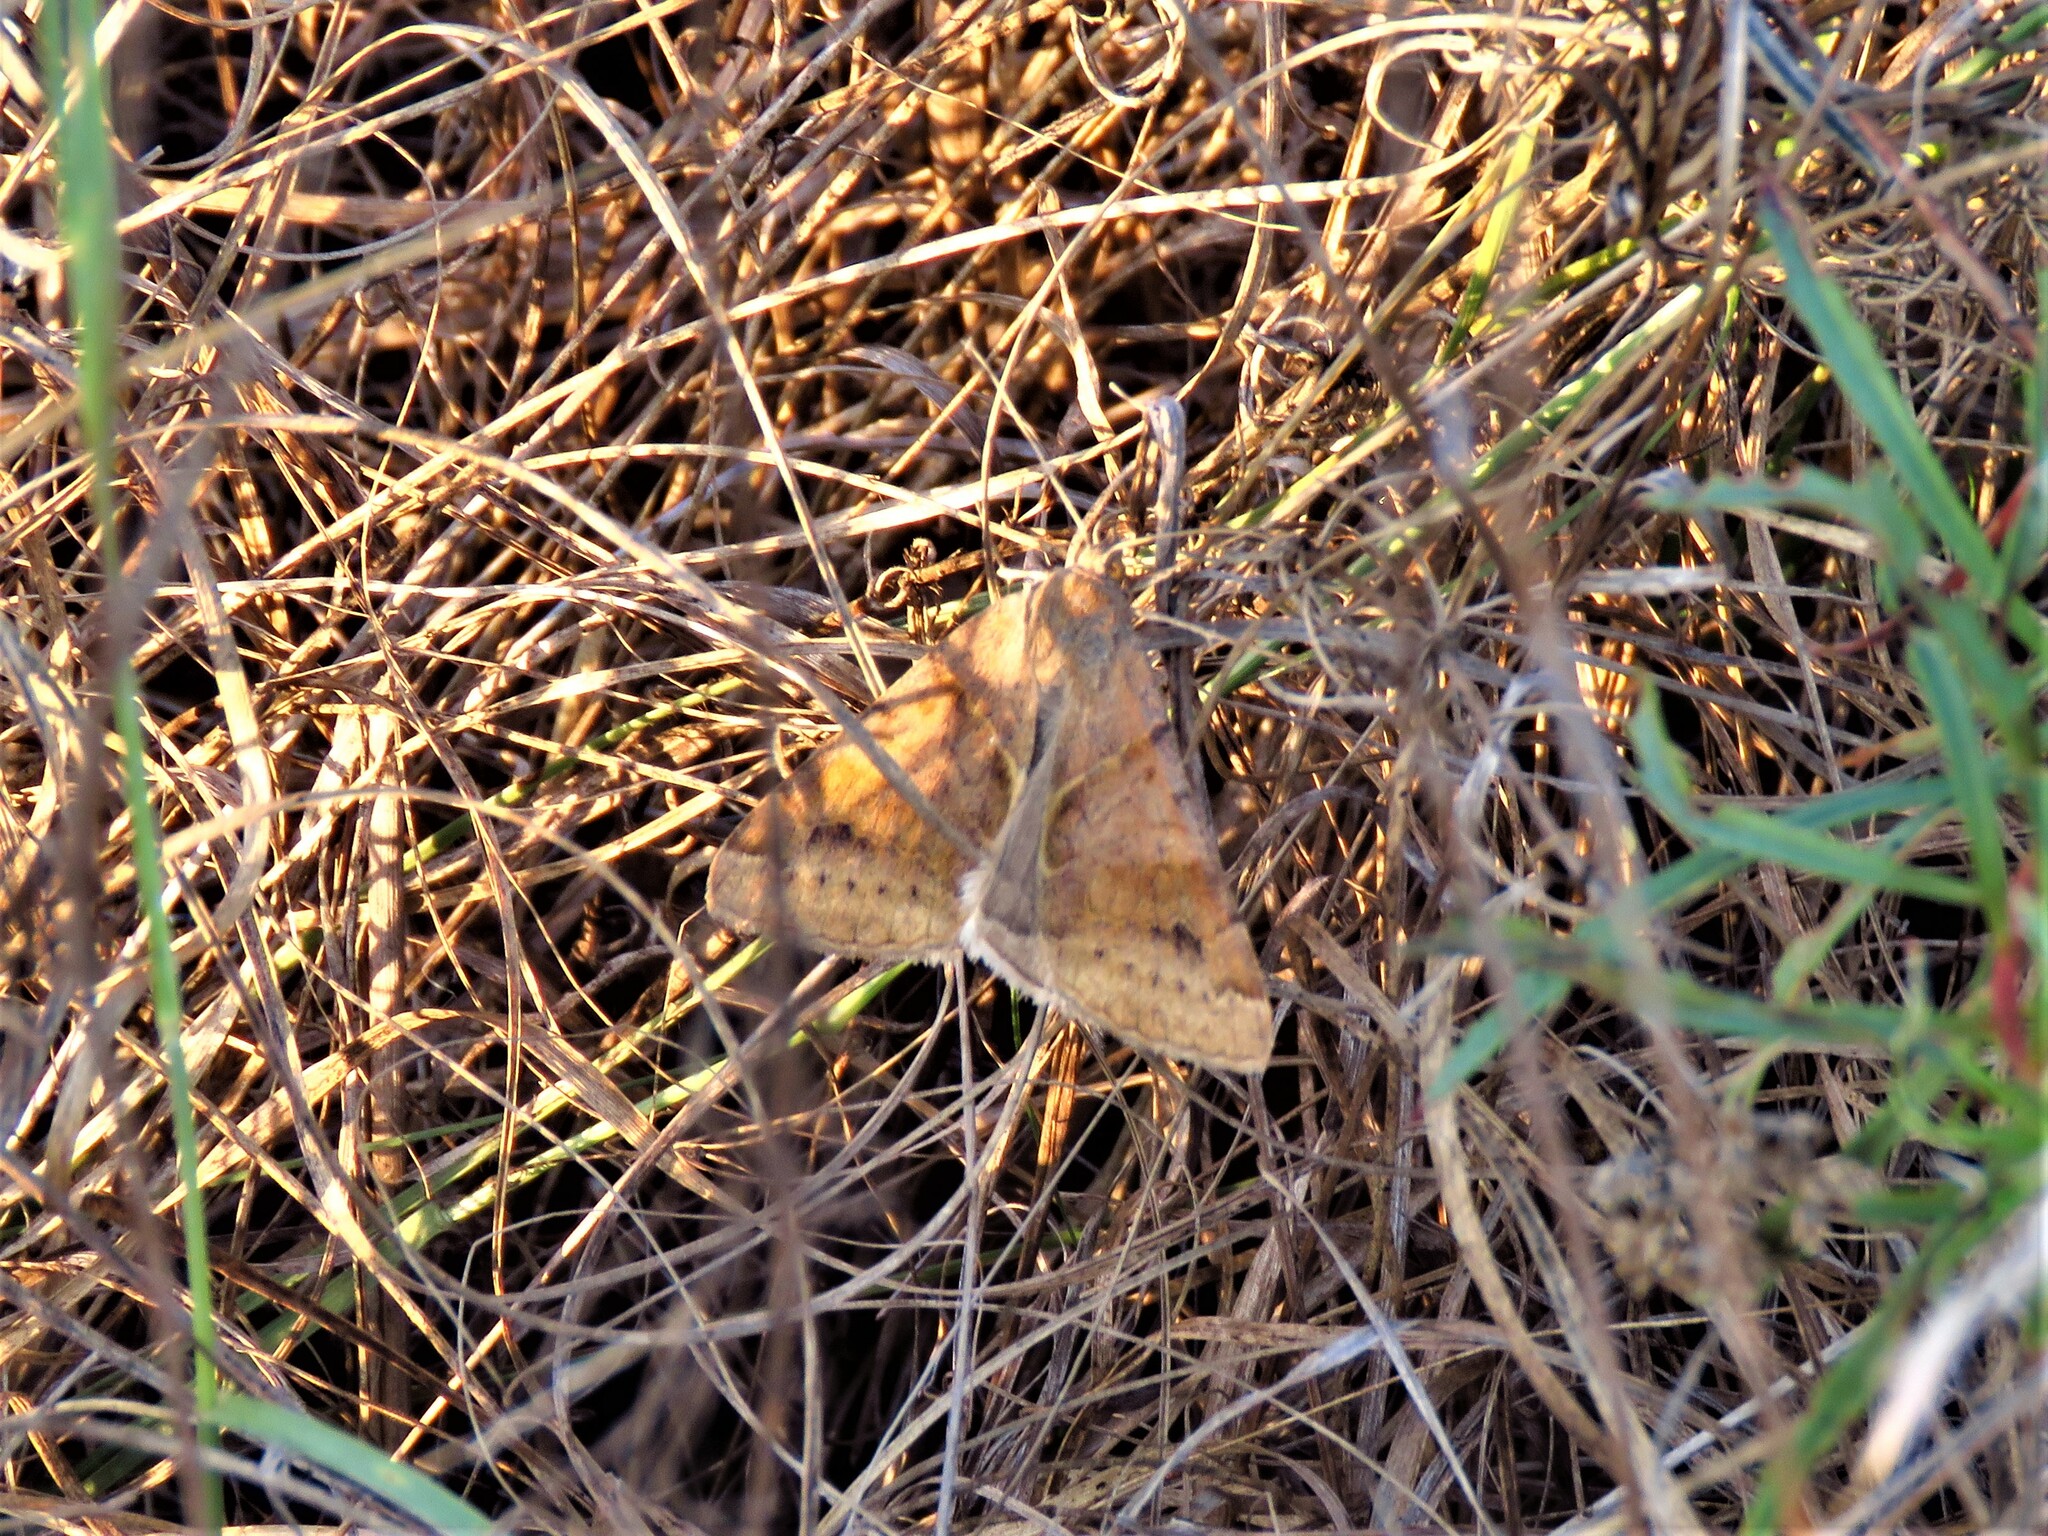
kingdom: Animalia
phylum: Arthropoda
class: Insecta
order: Lepidoptera
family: Erebidae
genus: Caenurgina
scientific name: Caenurgina erechtea
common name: Forage looper moth
